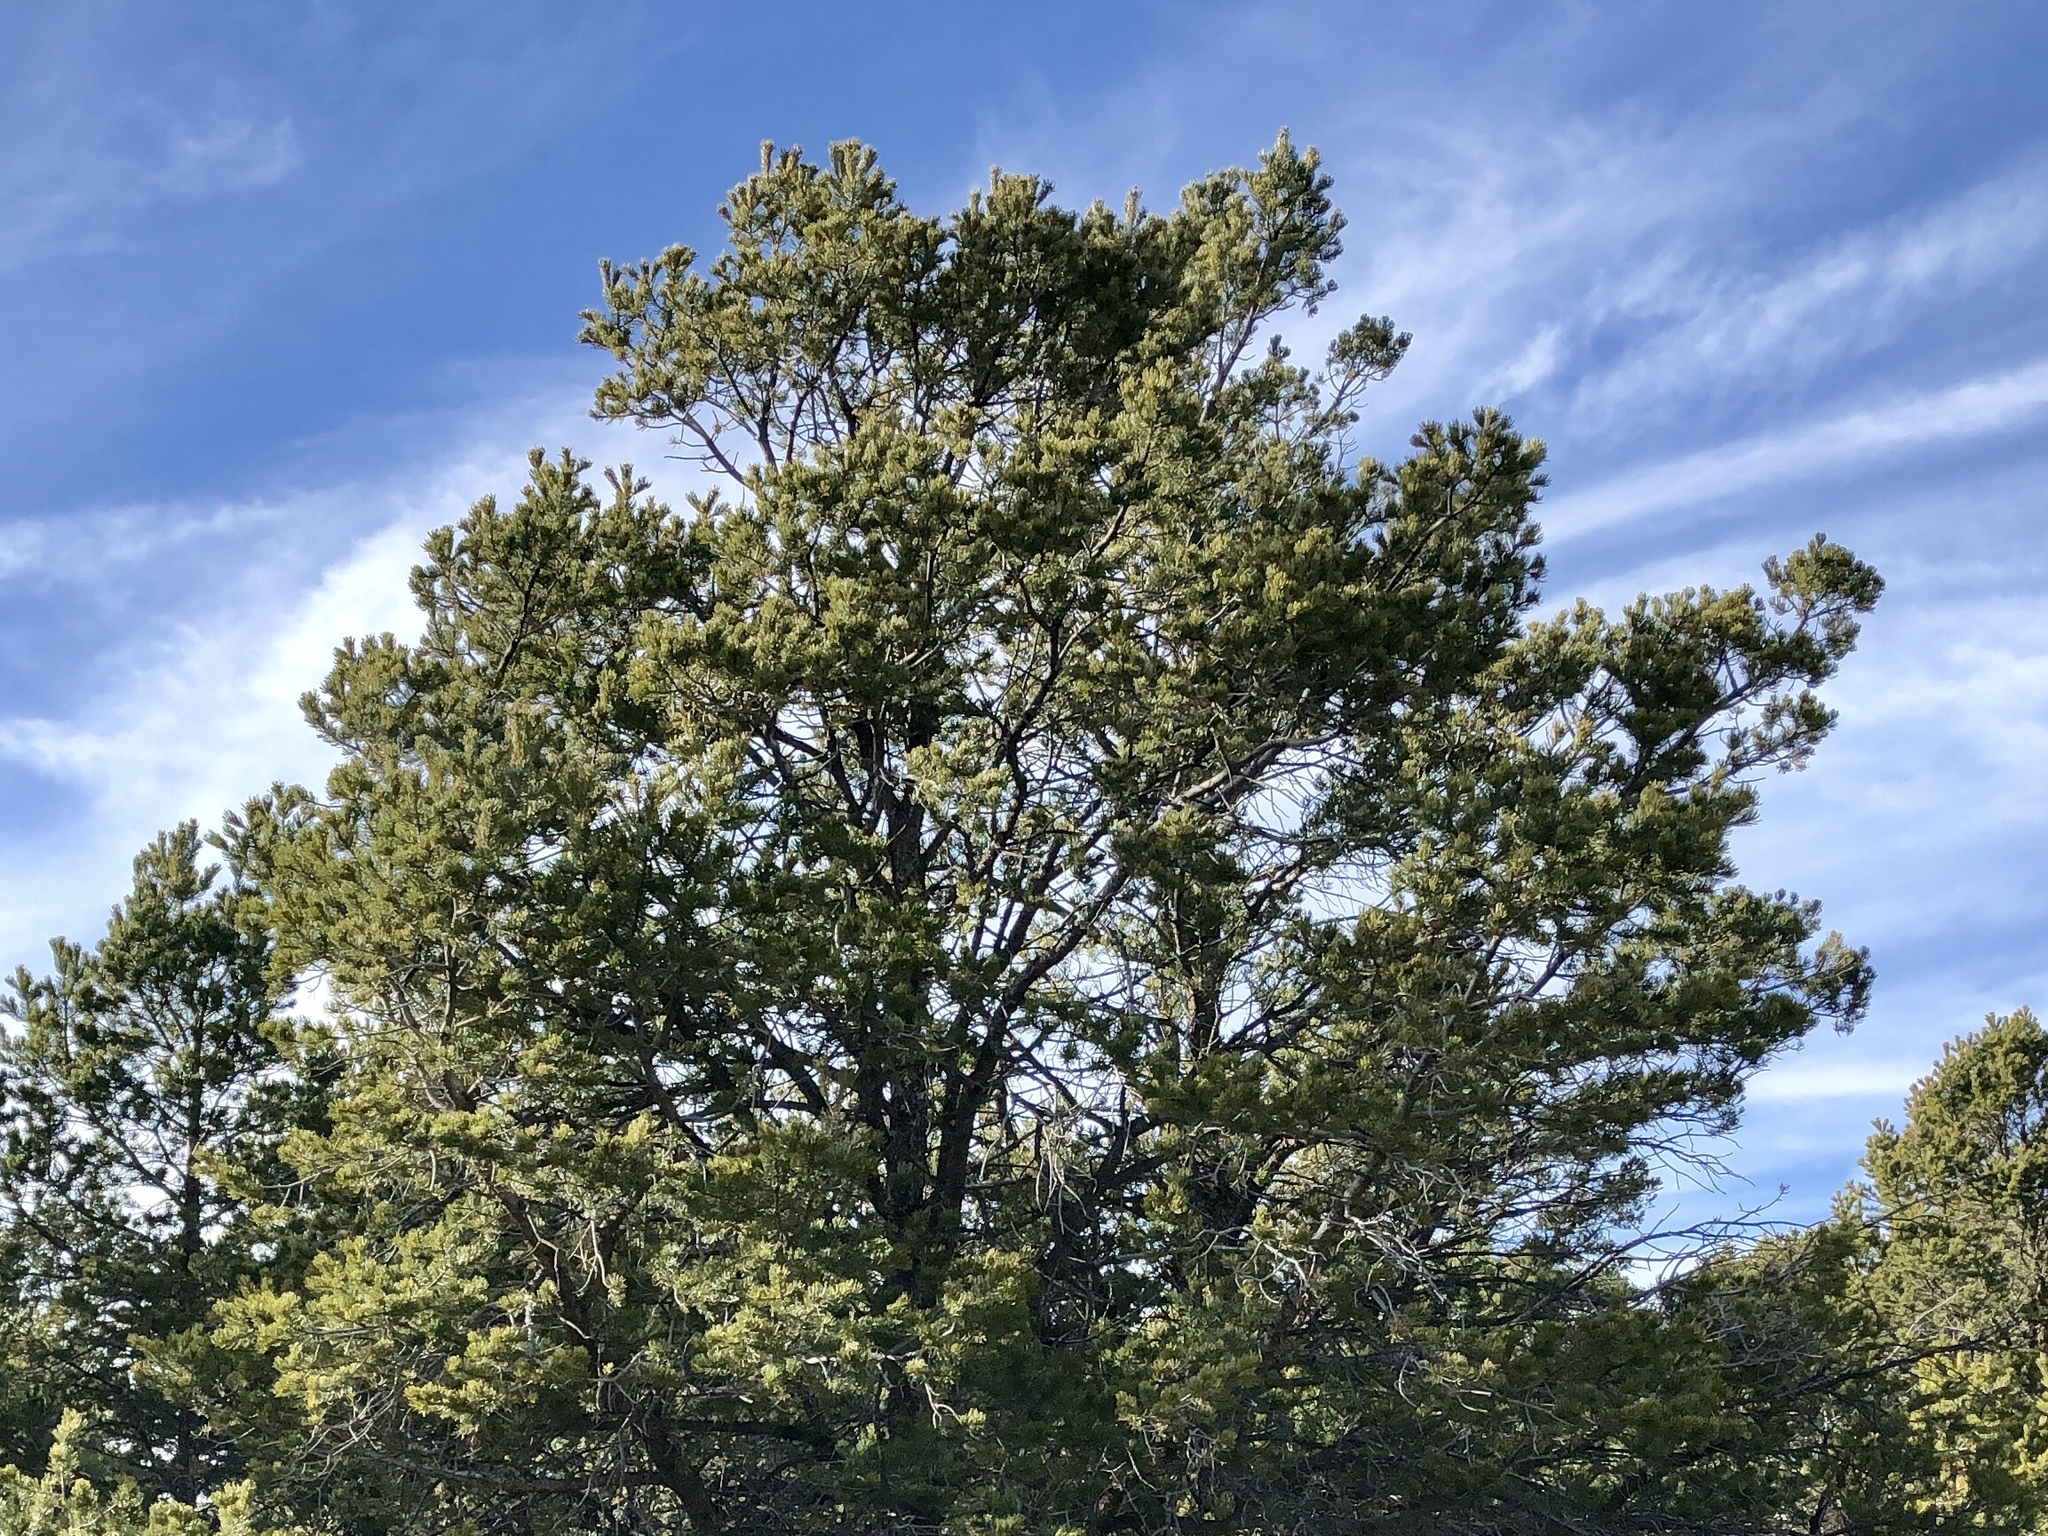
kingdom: Plantae
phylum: Tracheophyta
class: Pinopsida
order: Pinales
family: Pinaceae
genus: Pinus
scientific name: Pinus edulis
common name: Colorado pinyon
